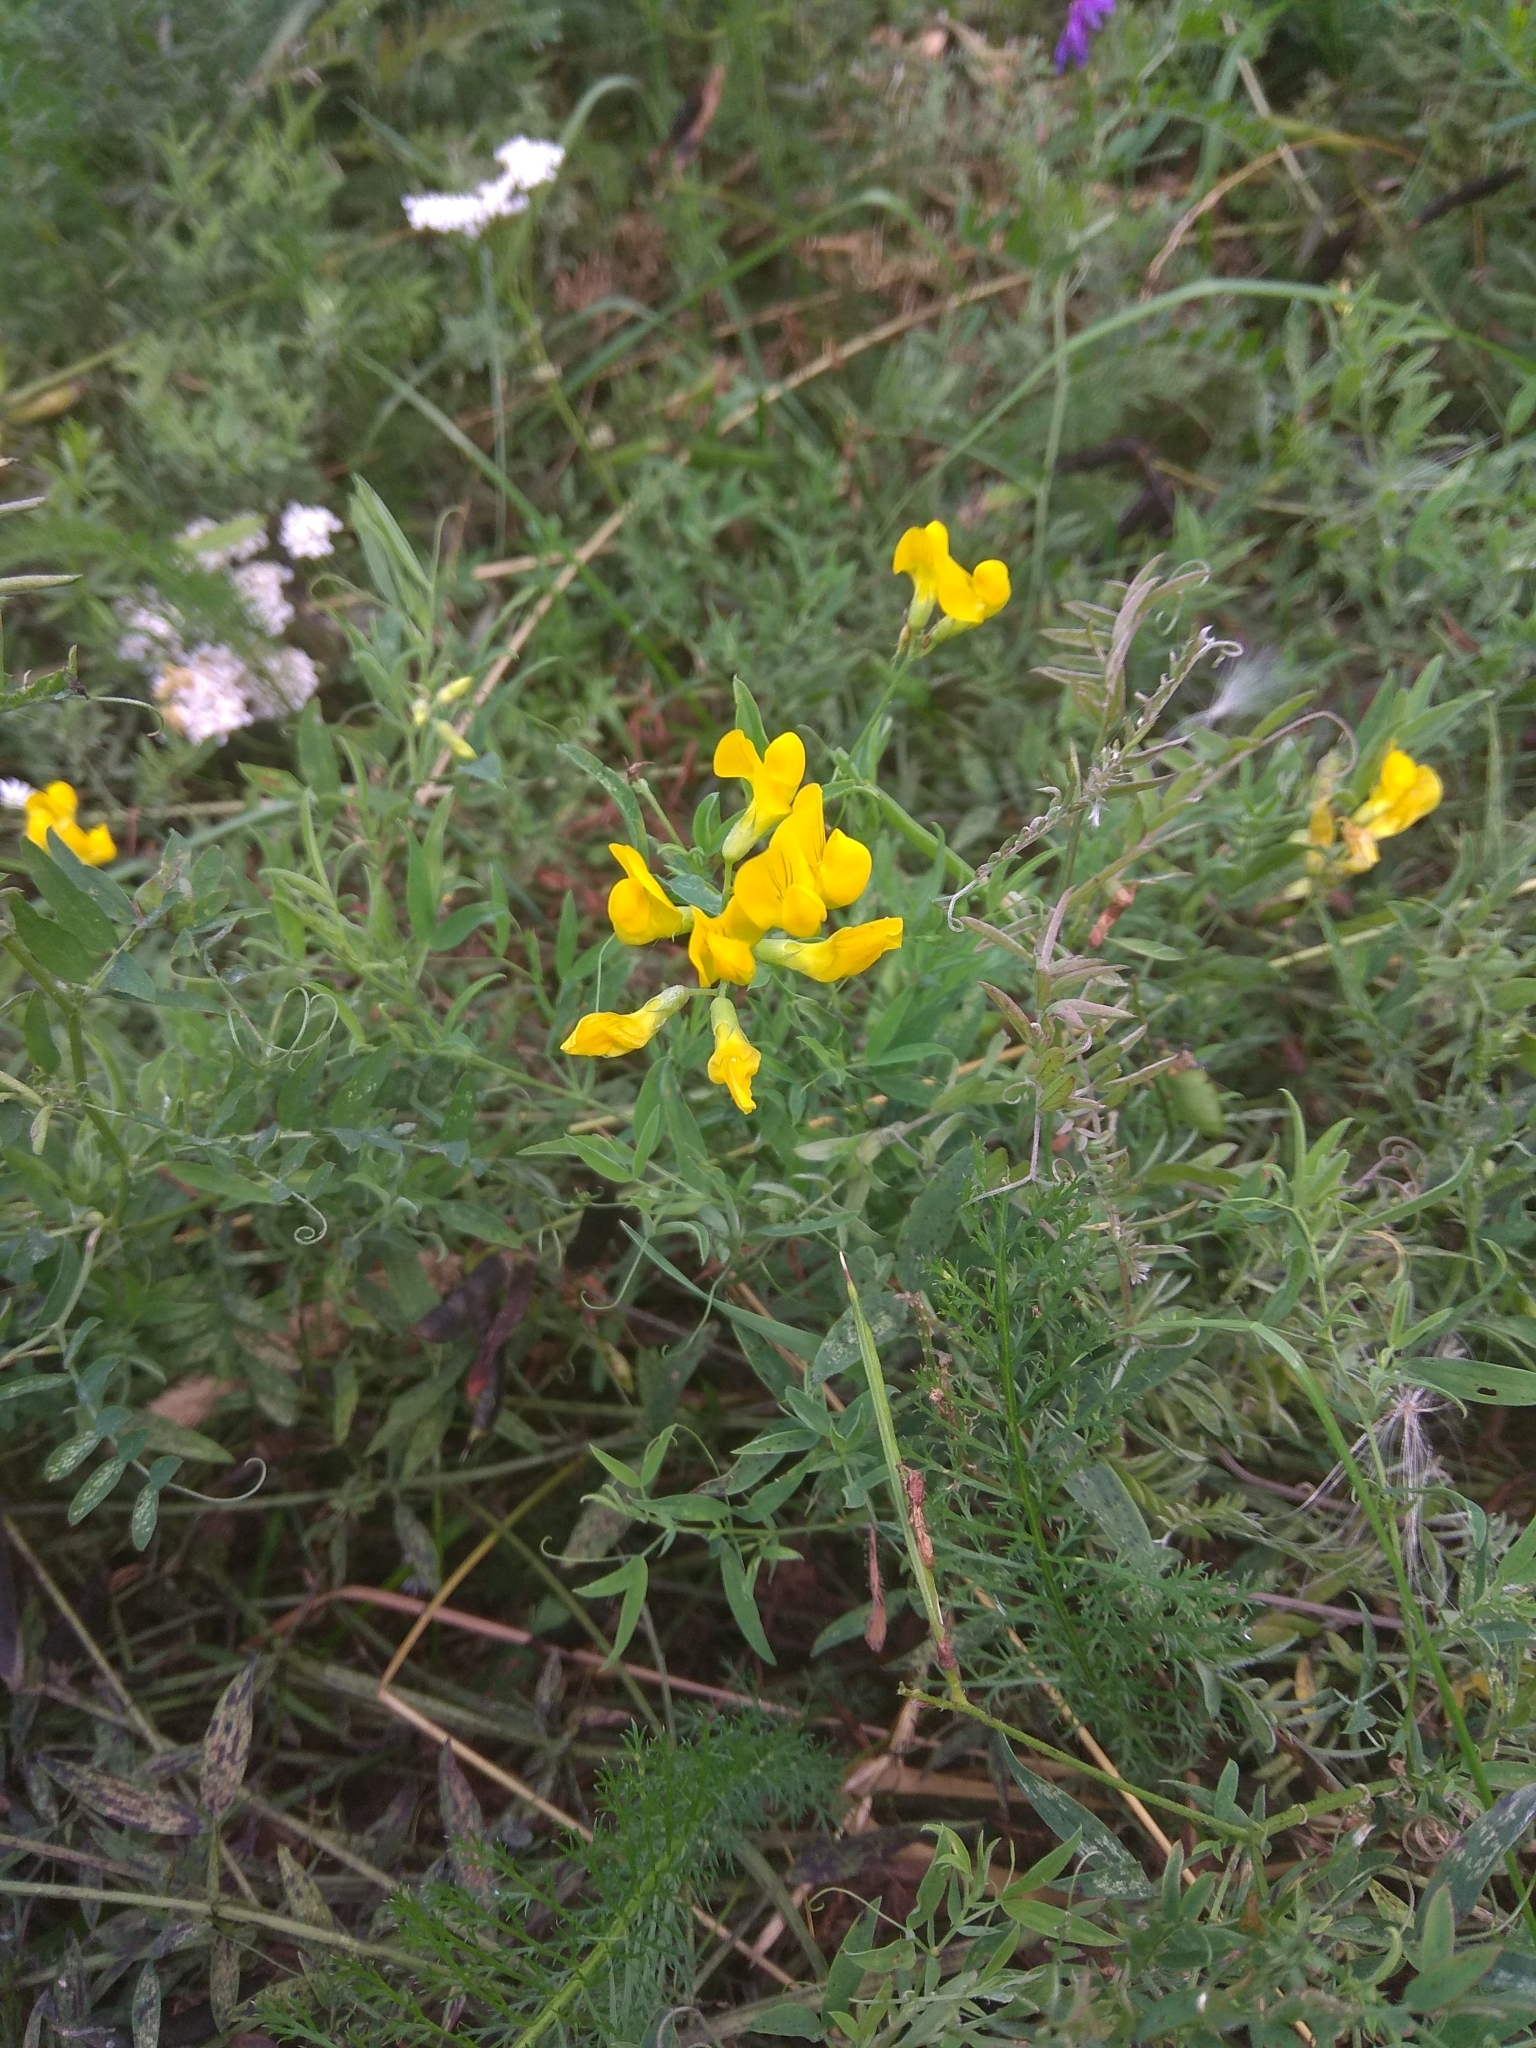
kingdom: Plantae
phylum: Tracheophyta
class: Magnoliopsida
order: Fabales
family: Fabaceae
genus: Lathyrus
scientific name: Lathyrus pratensis
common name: Meadow vetchling
